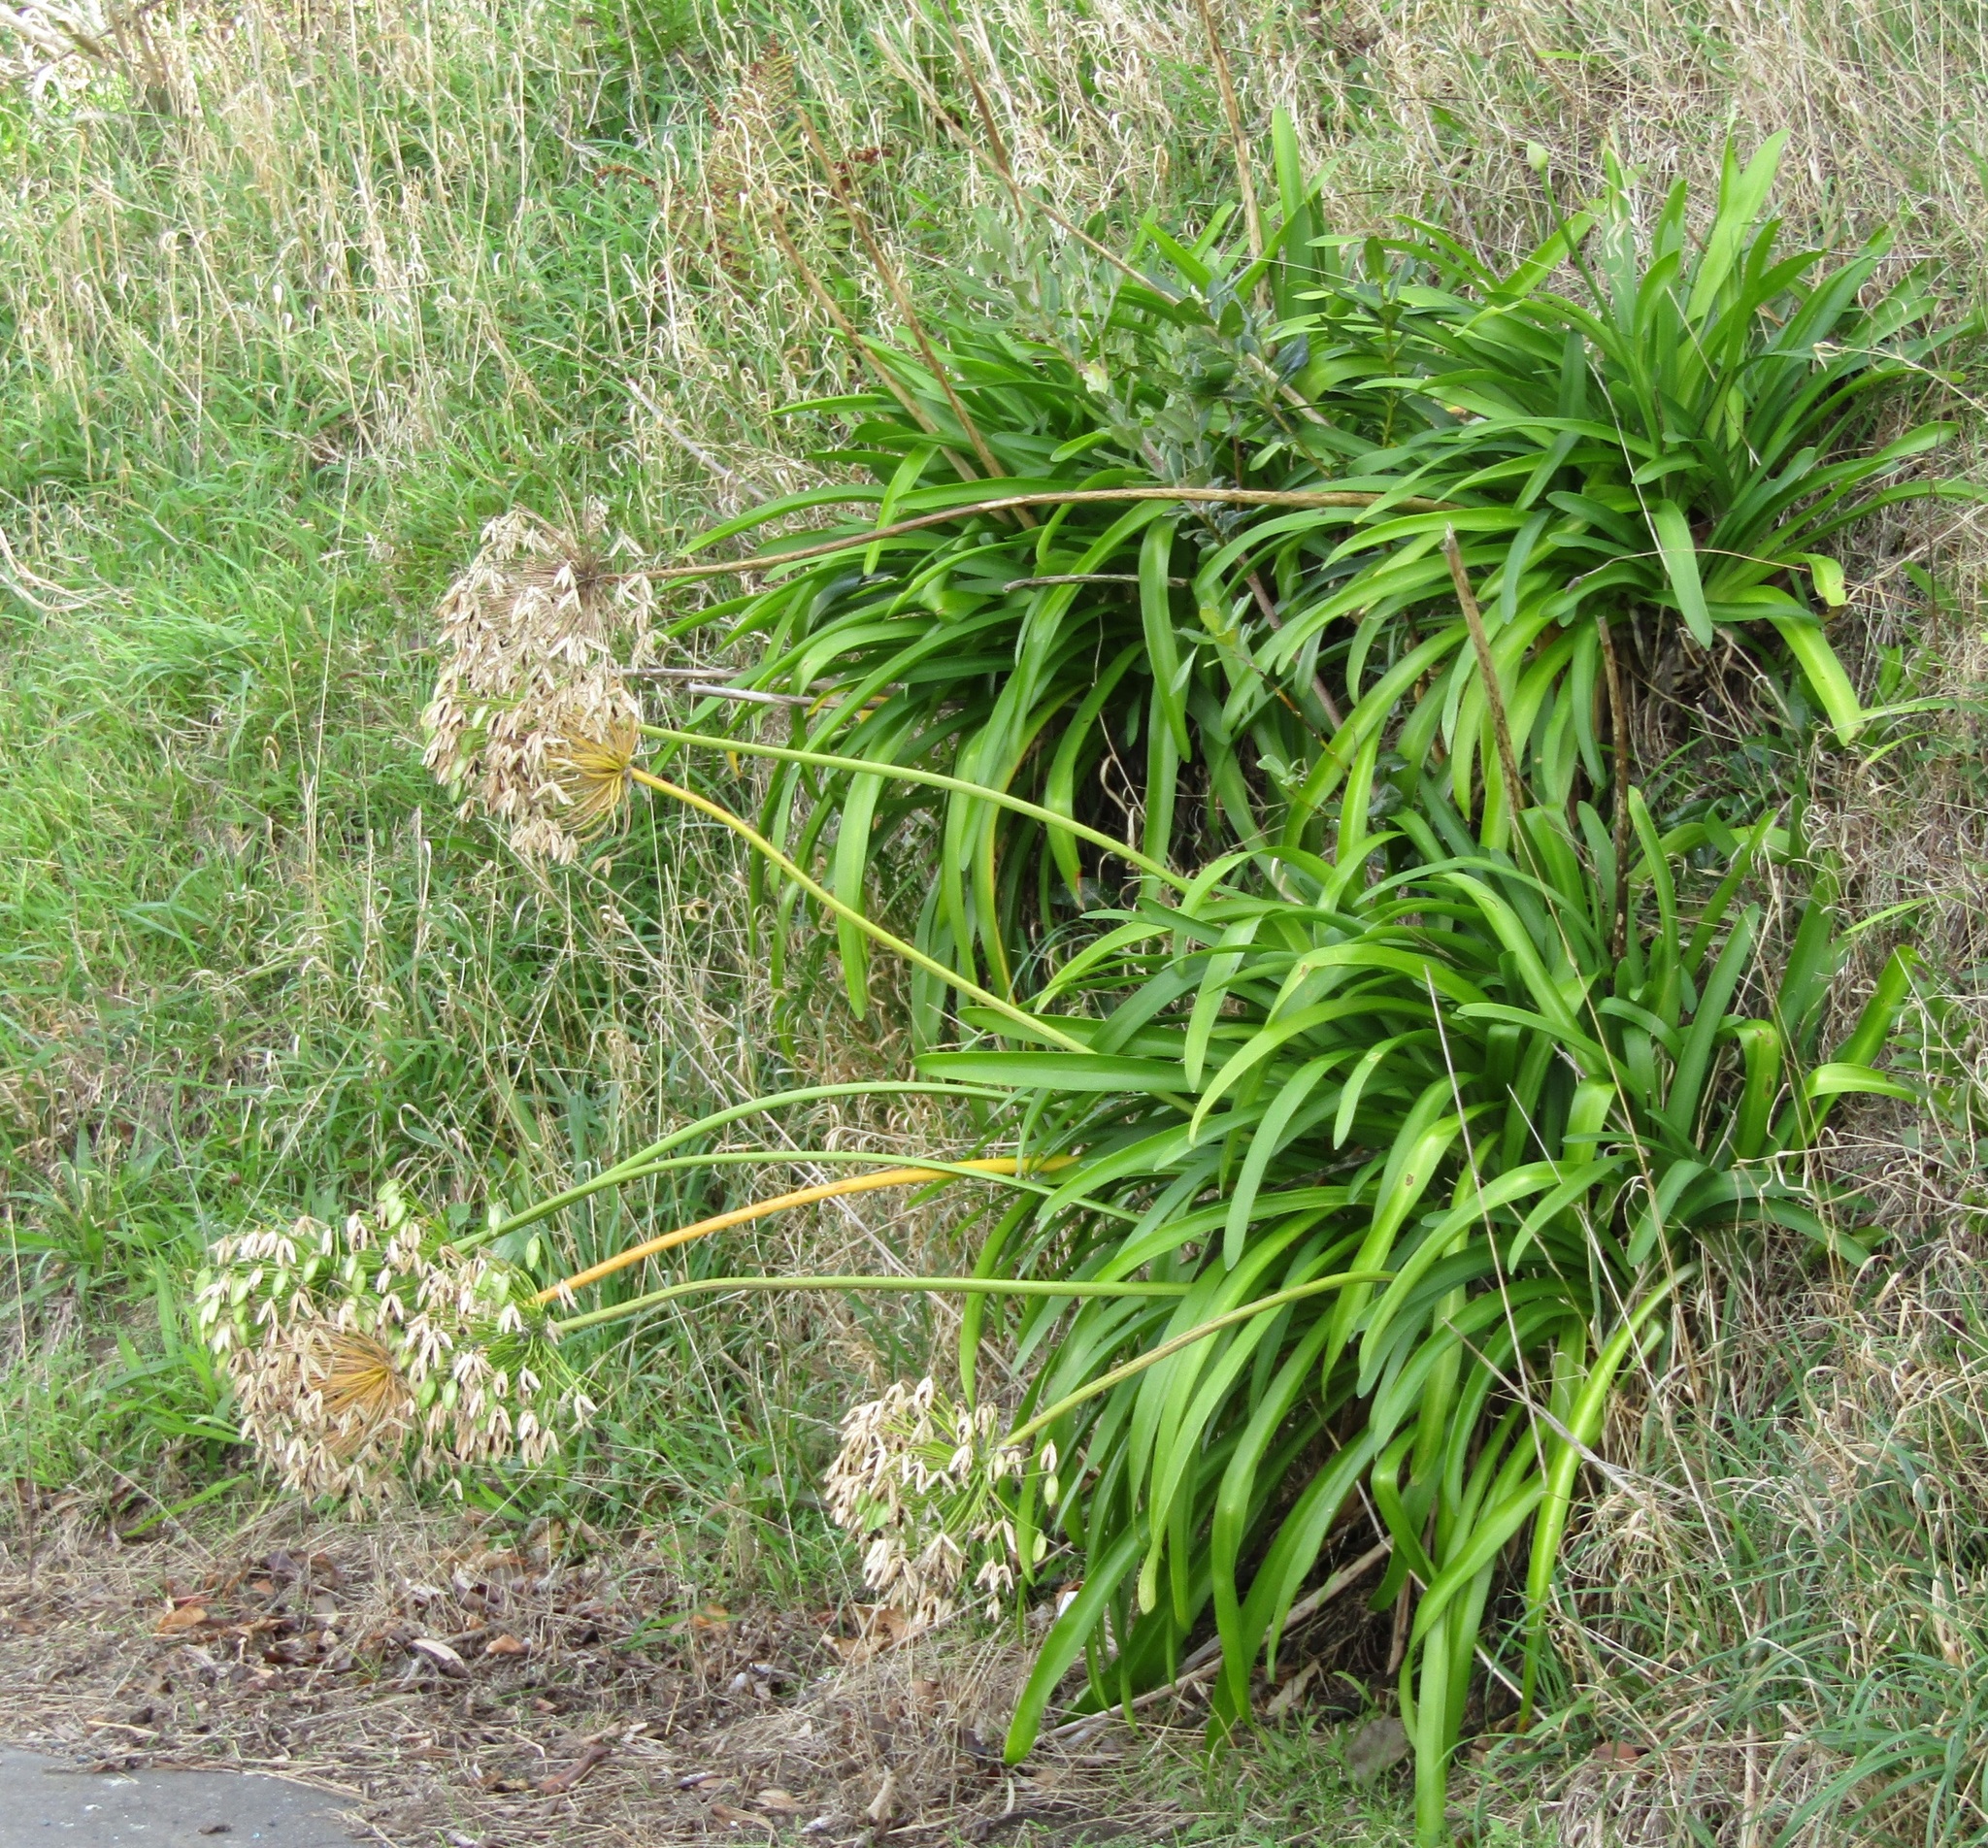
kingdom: Plantae
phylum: Tracheophyta
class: Liliopsida
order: Asparagales
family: Amaryllidaceae
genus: Agapanthus
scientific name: Agapanthus praecox
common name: African-lily
